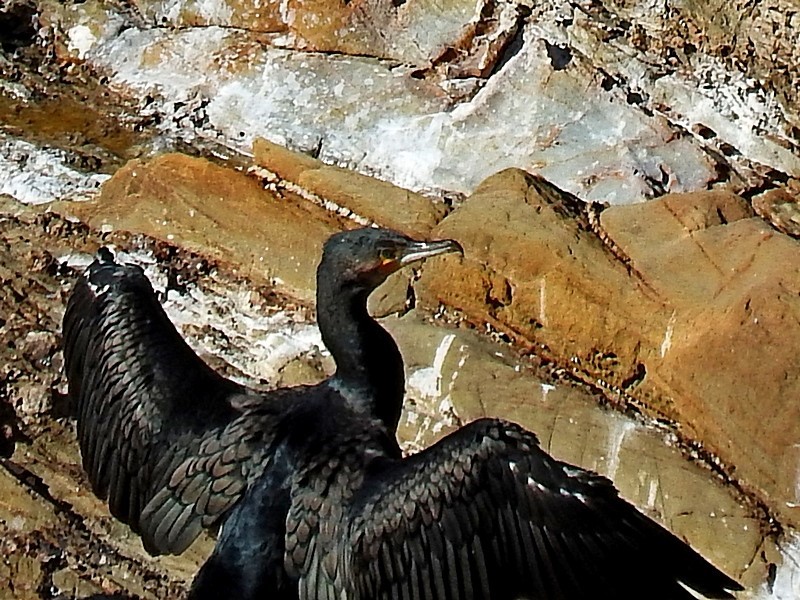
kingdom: Animalia
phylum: Chordata
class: Aves
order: Suliformes
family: Phalacrocoracidae
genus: Phalacrocorax
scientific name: Phalacrocorax carbo
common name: Great cormorant
